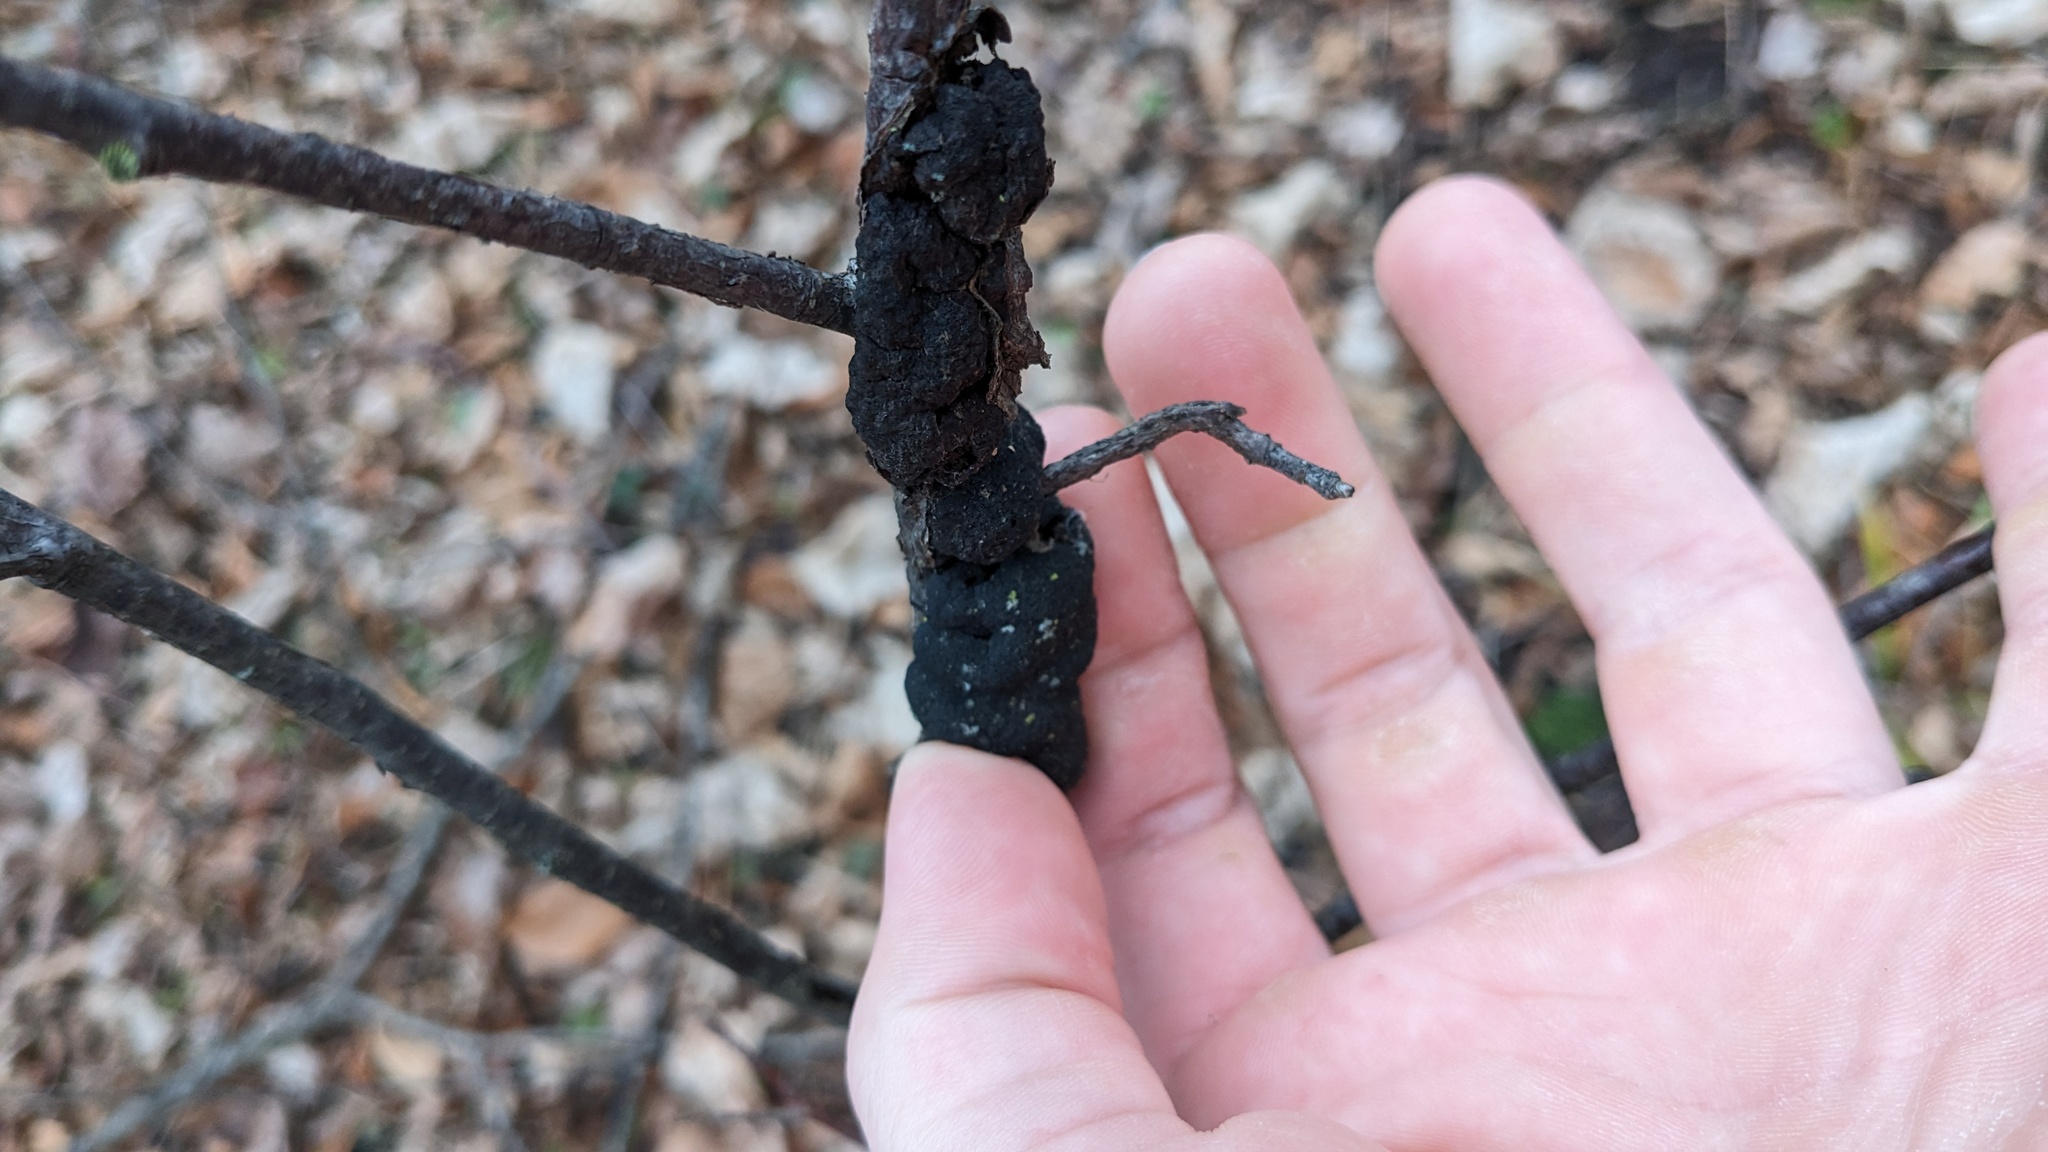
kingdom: Fungi
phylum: Ascomycota
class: Dothideomycetes
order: Venturiales
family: Venturiaceae
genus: Apiosporina
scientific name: Apiosporina morbosa
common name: Black knot
